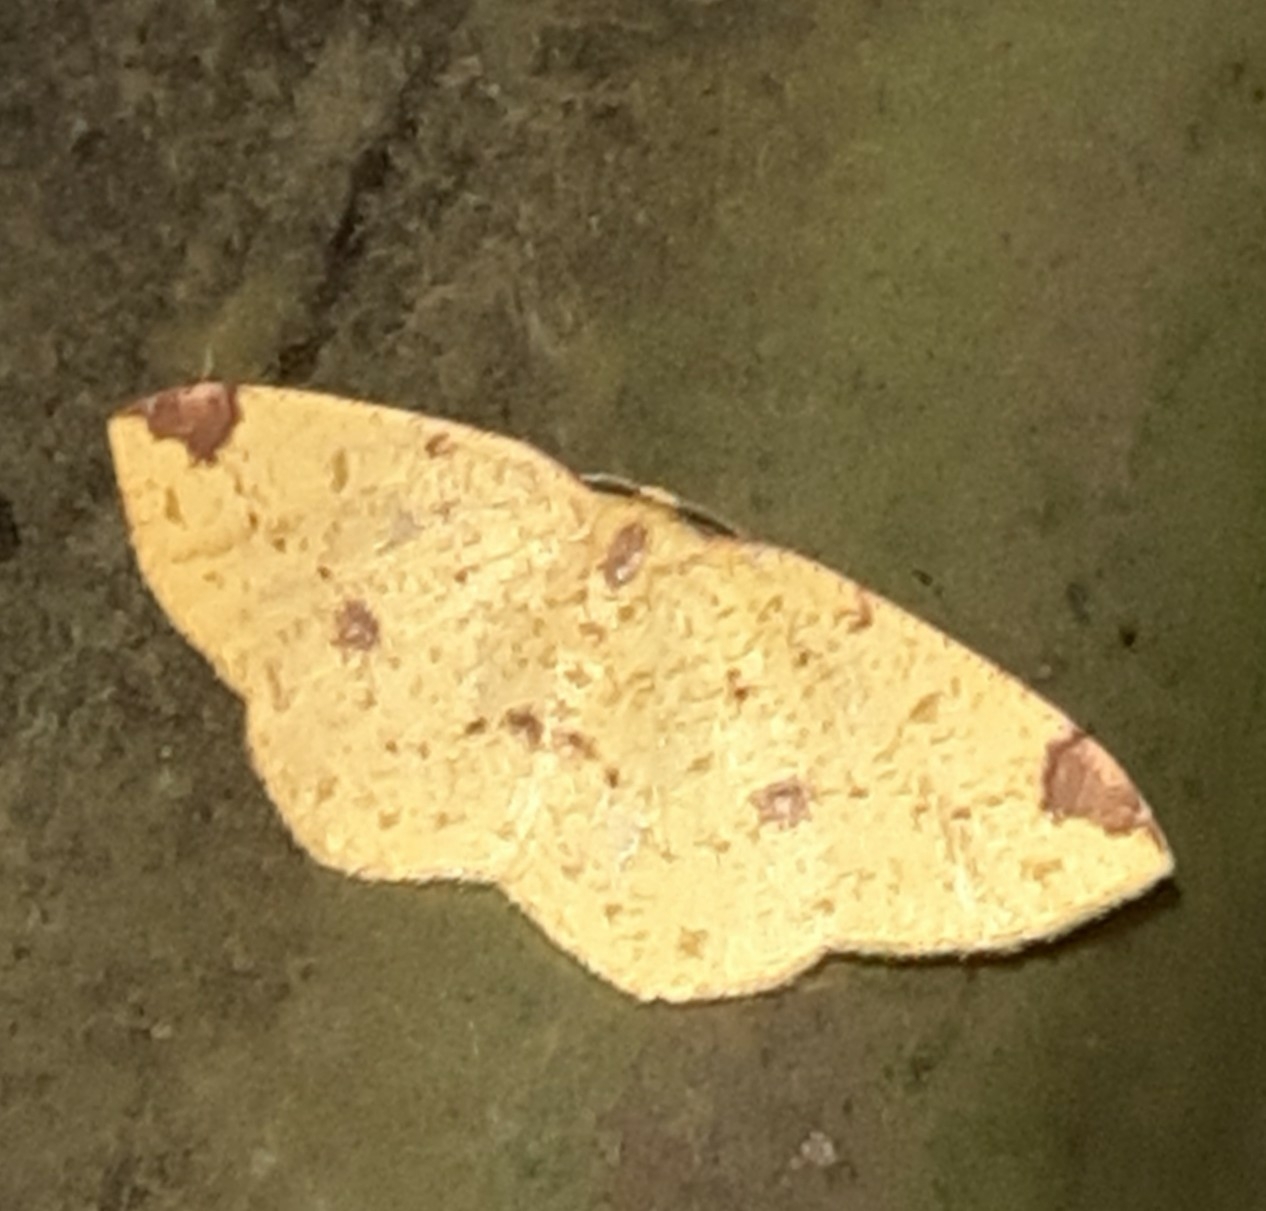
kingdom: Animalia
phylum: Arthropoda
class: Insecta
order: Lepidoptera
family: Geometridae
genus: Periclina
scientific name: Periclina apricaria
